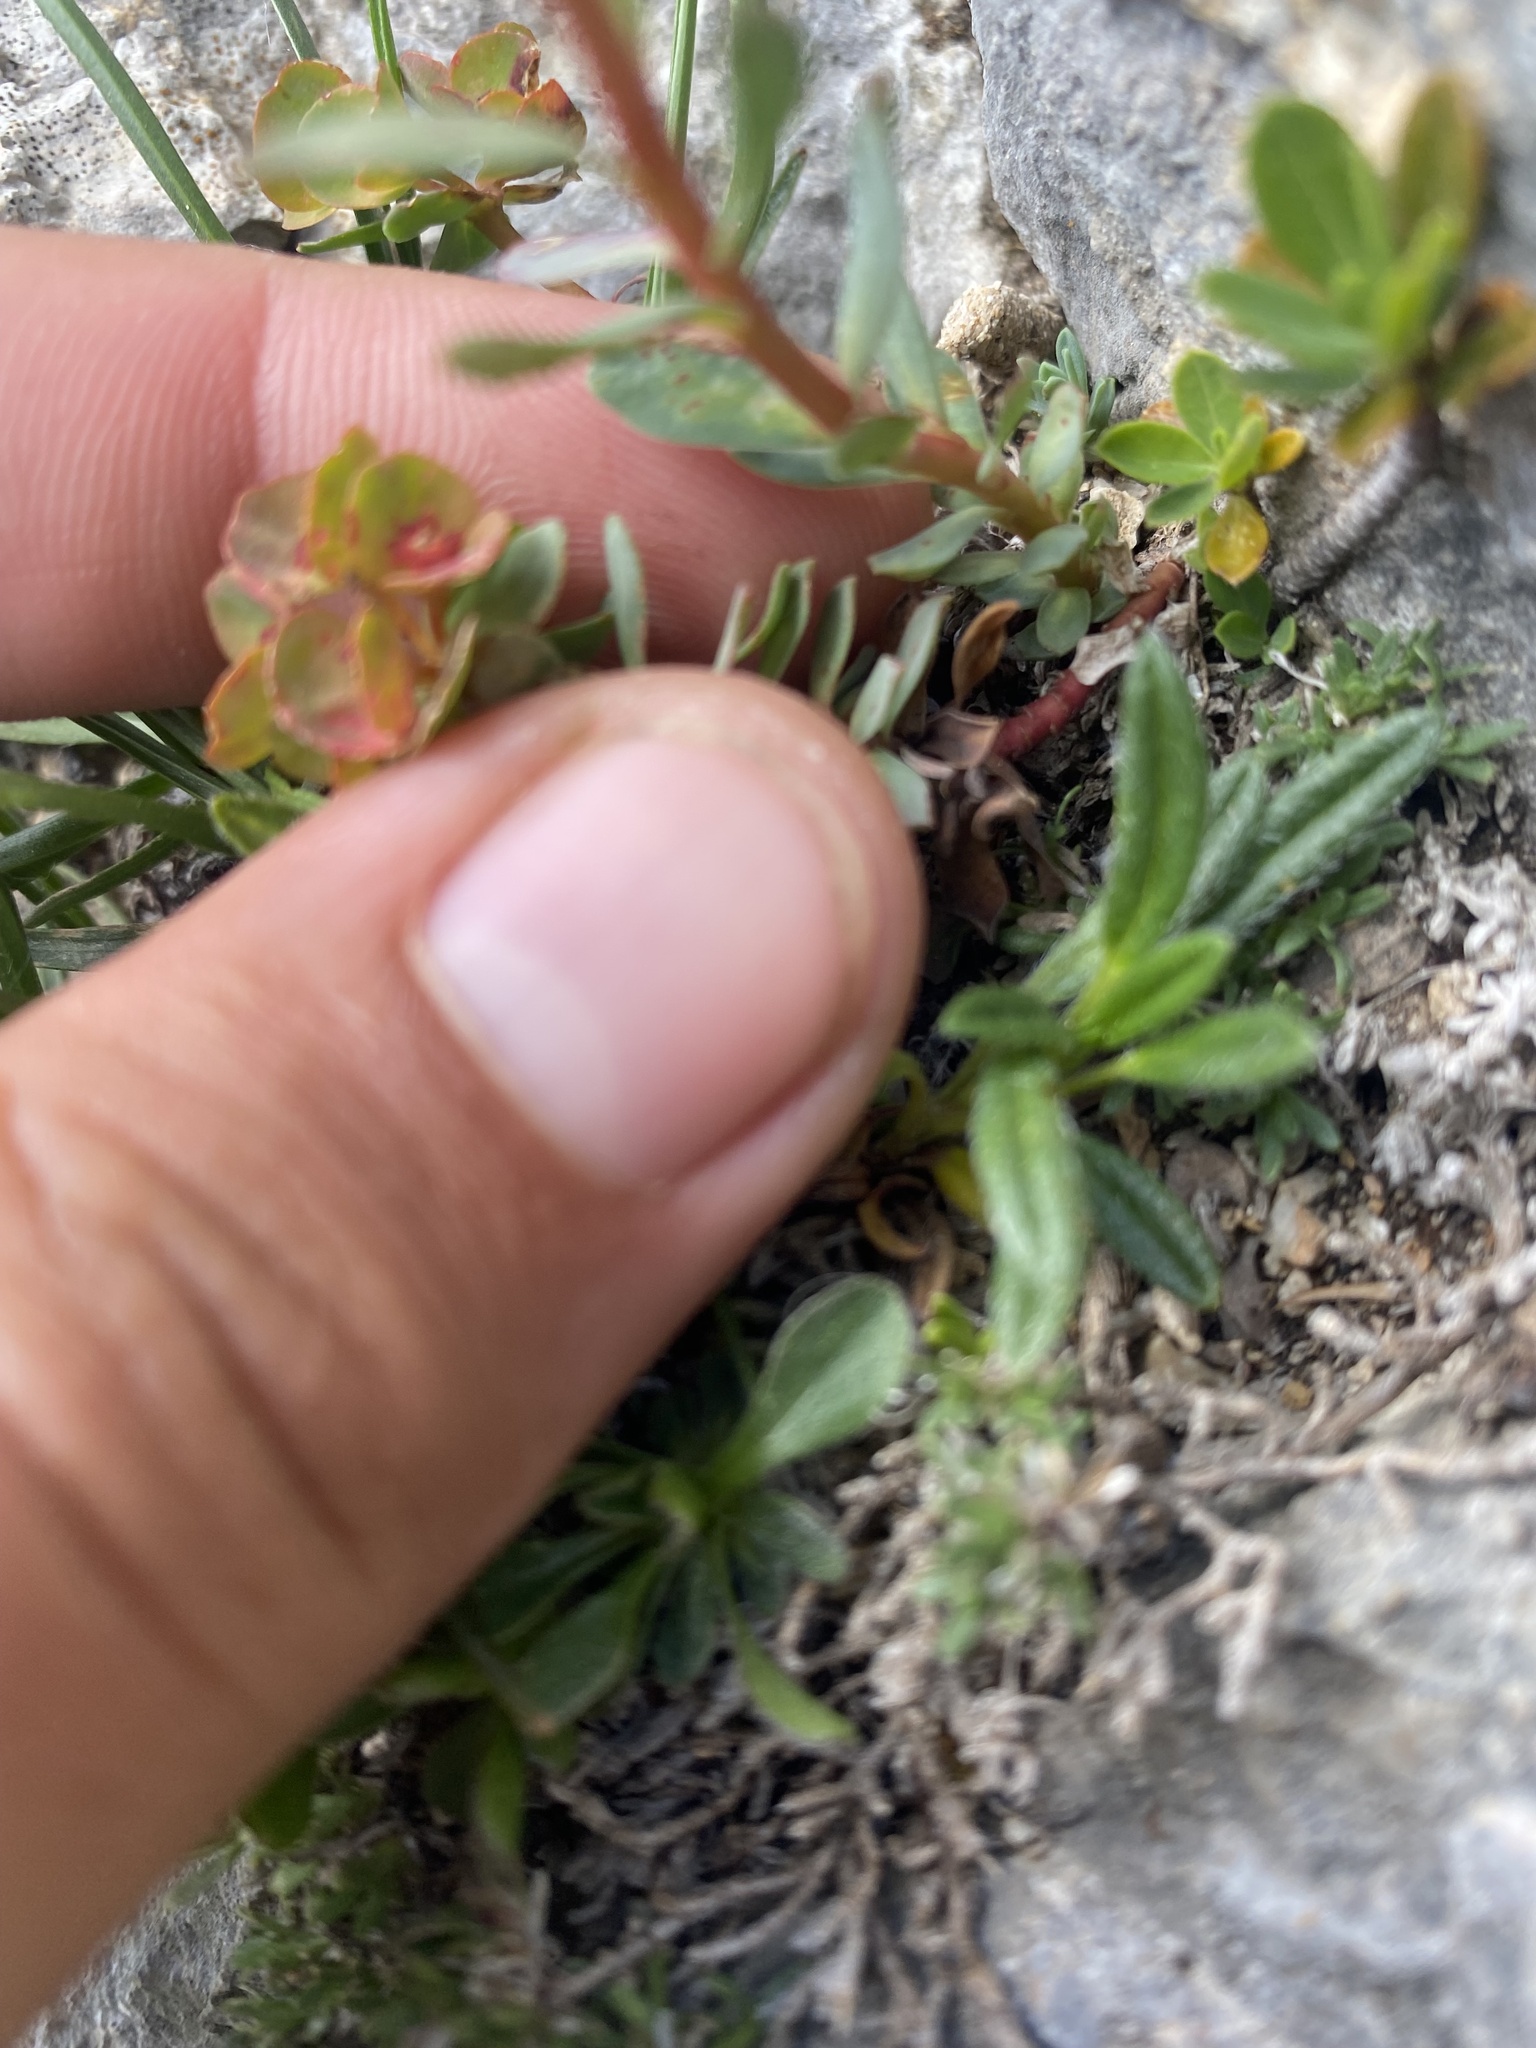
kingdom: Plantae
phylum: Tracheophyta
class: Magnoliopsida
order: Malpighiales
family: Euphorbiaceae
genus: Euphorbia
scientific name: Euphorbia petrophila
